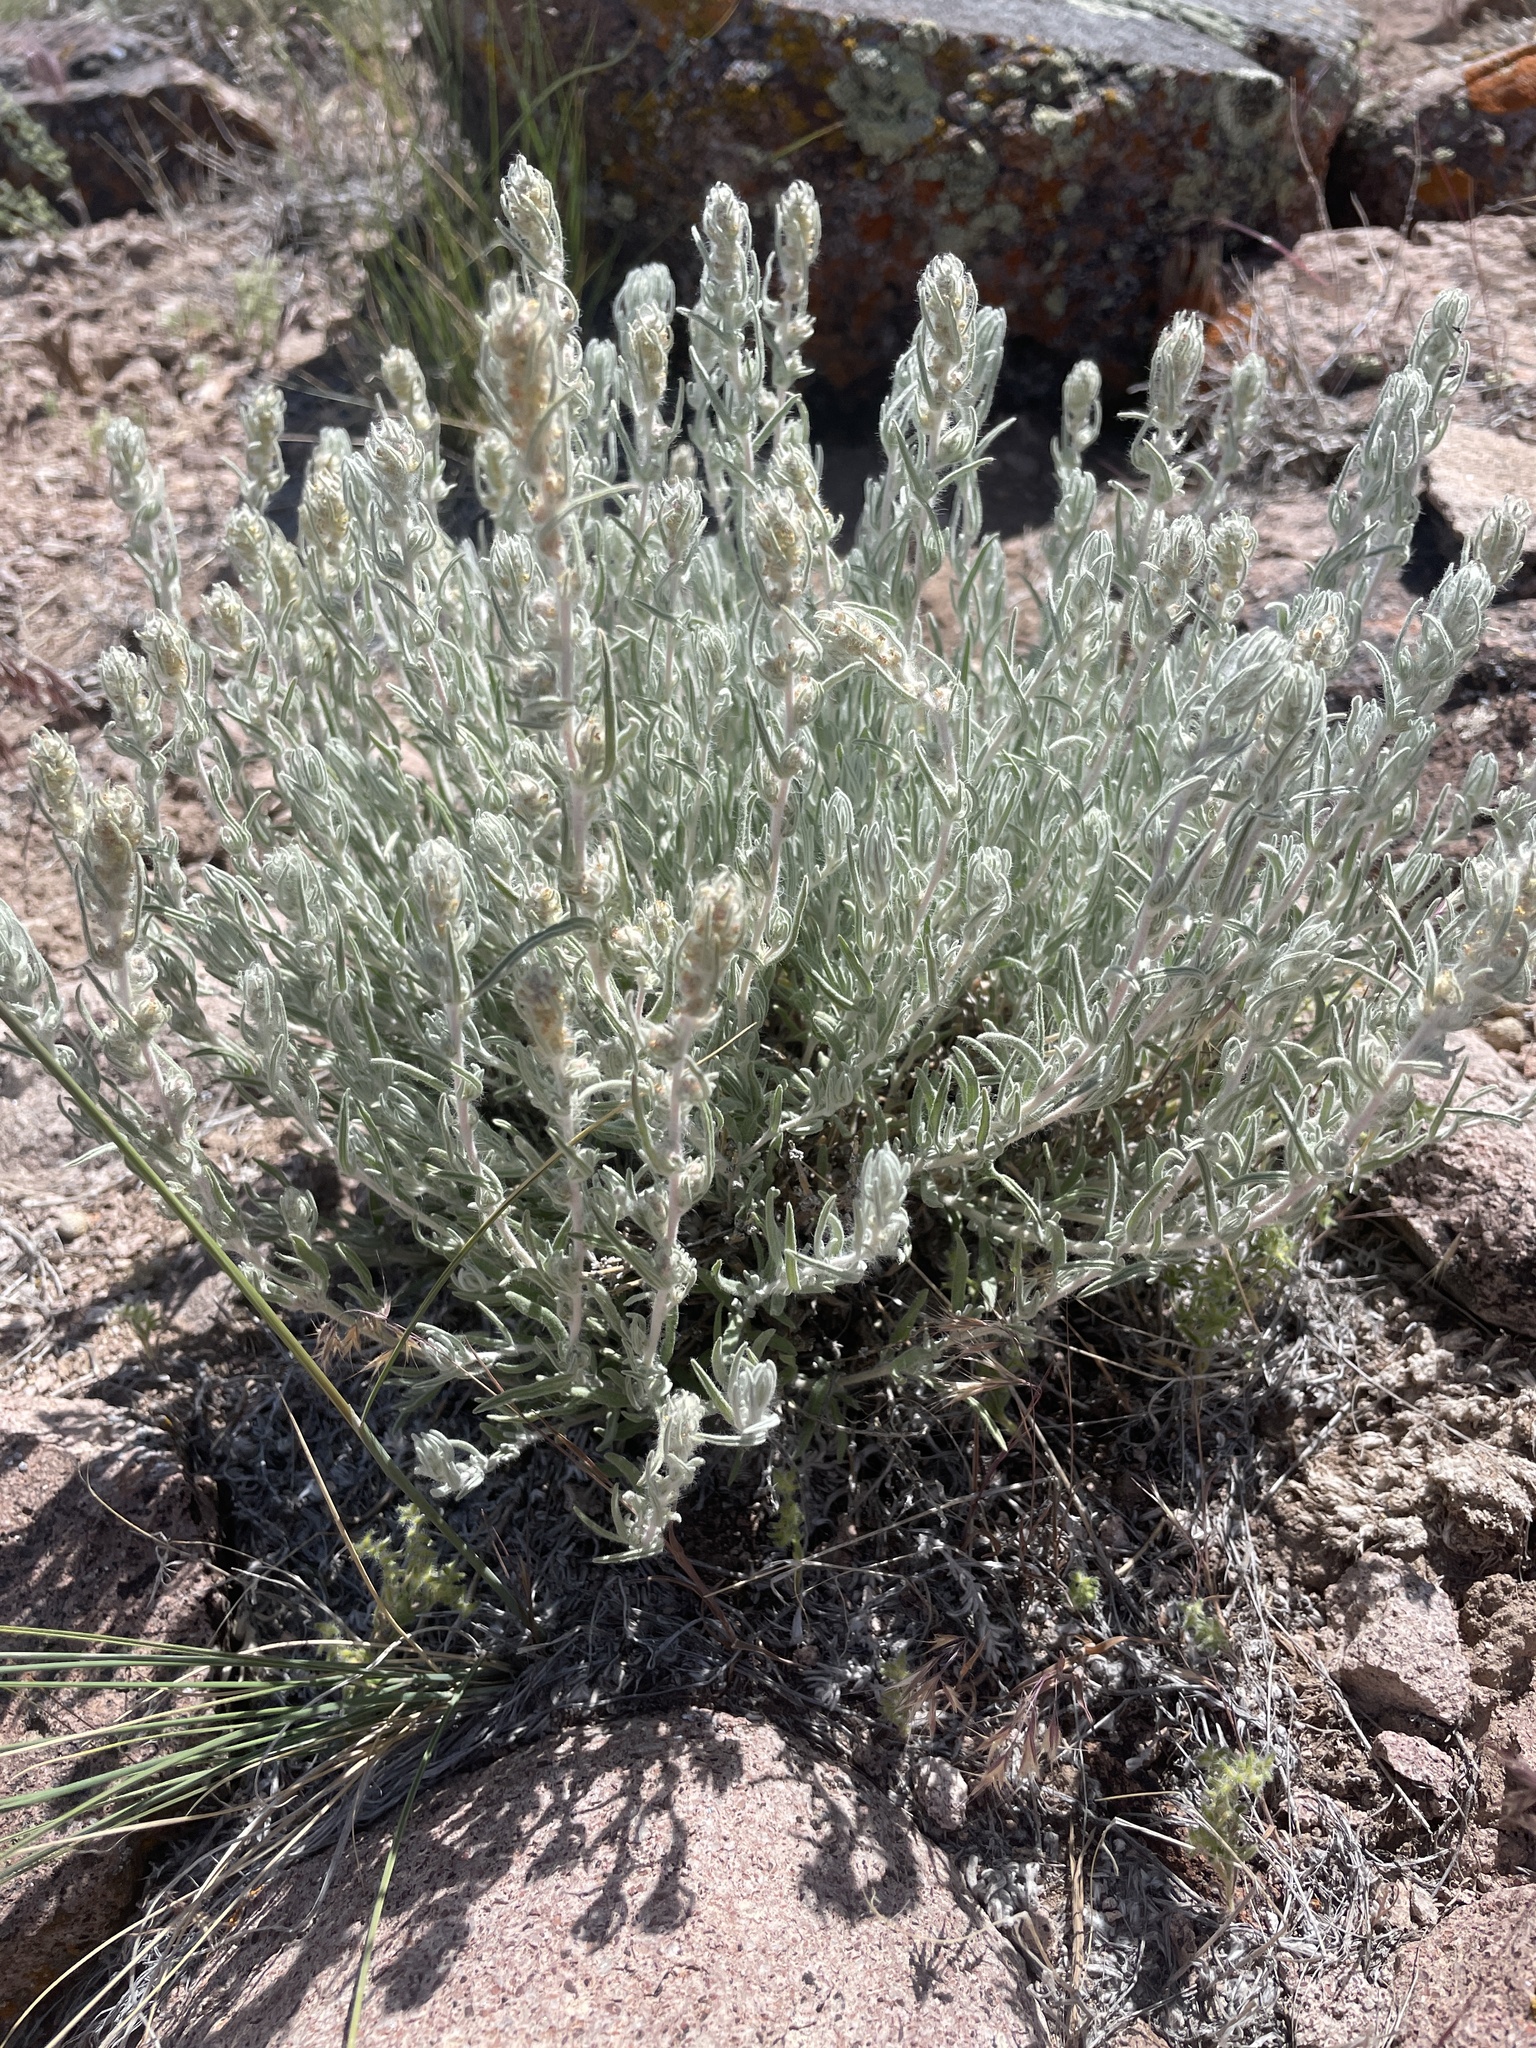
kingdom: Plantae
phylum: Tracheophyta
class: Magnoliopsida
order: Caryophyllales
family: Amaranthaceae
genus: Krascheninnikovia
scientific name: Krascheninnikovia lanata
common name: Winterfat
